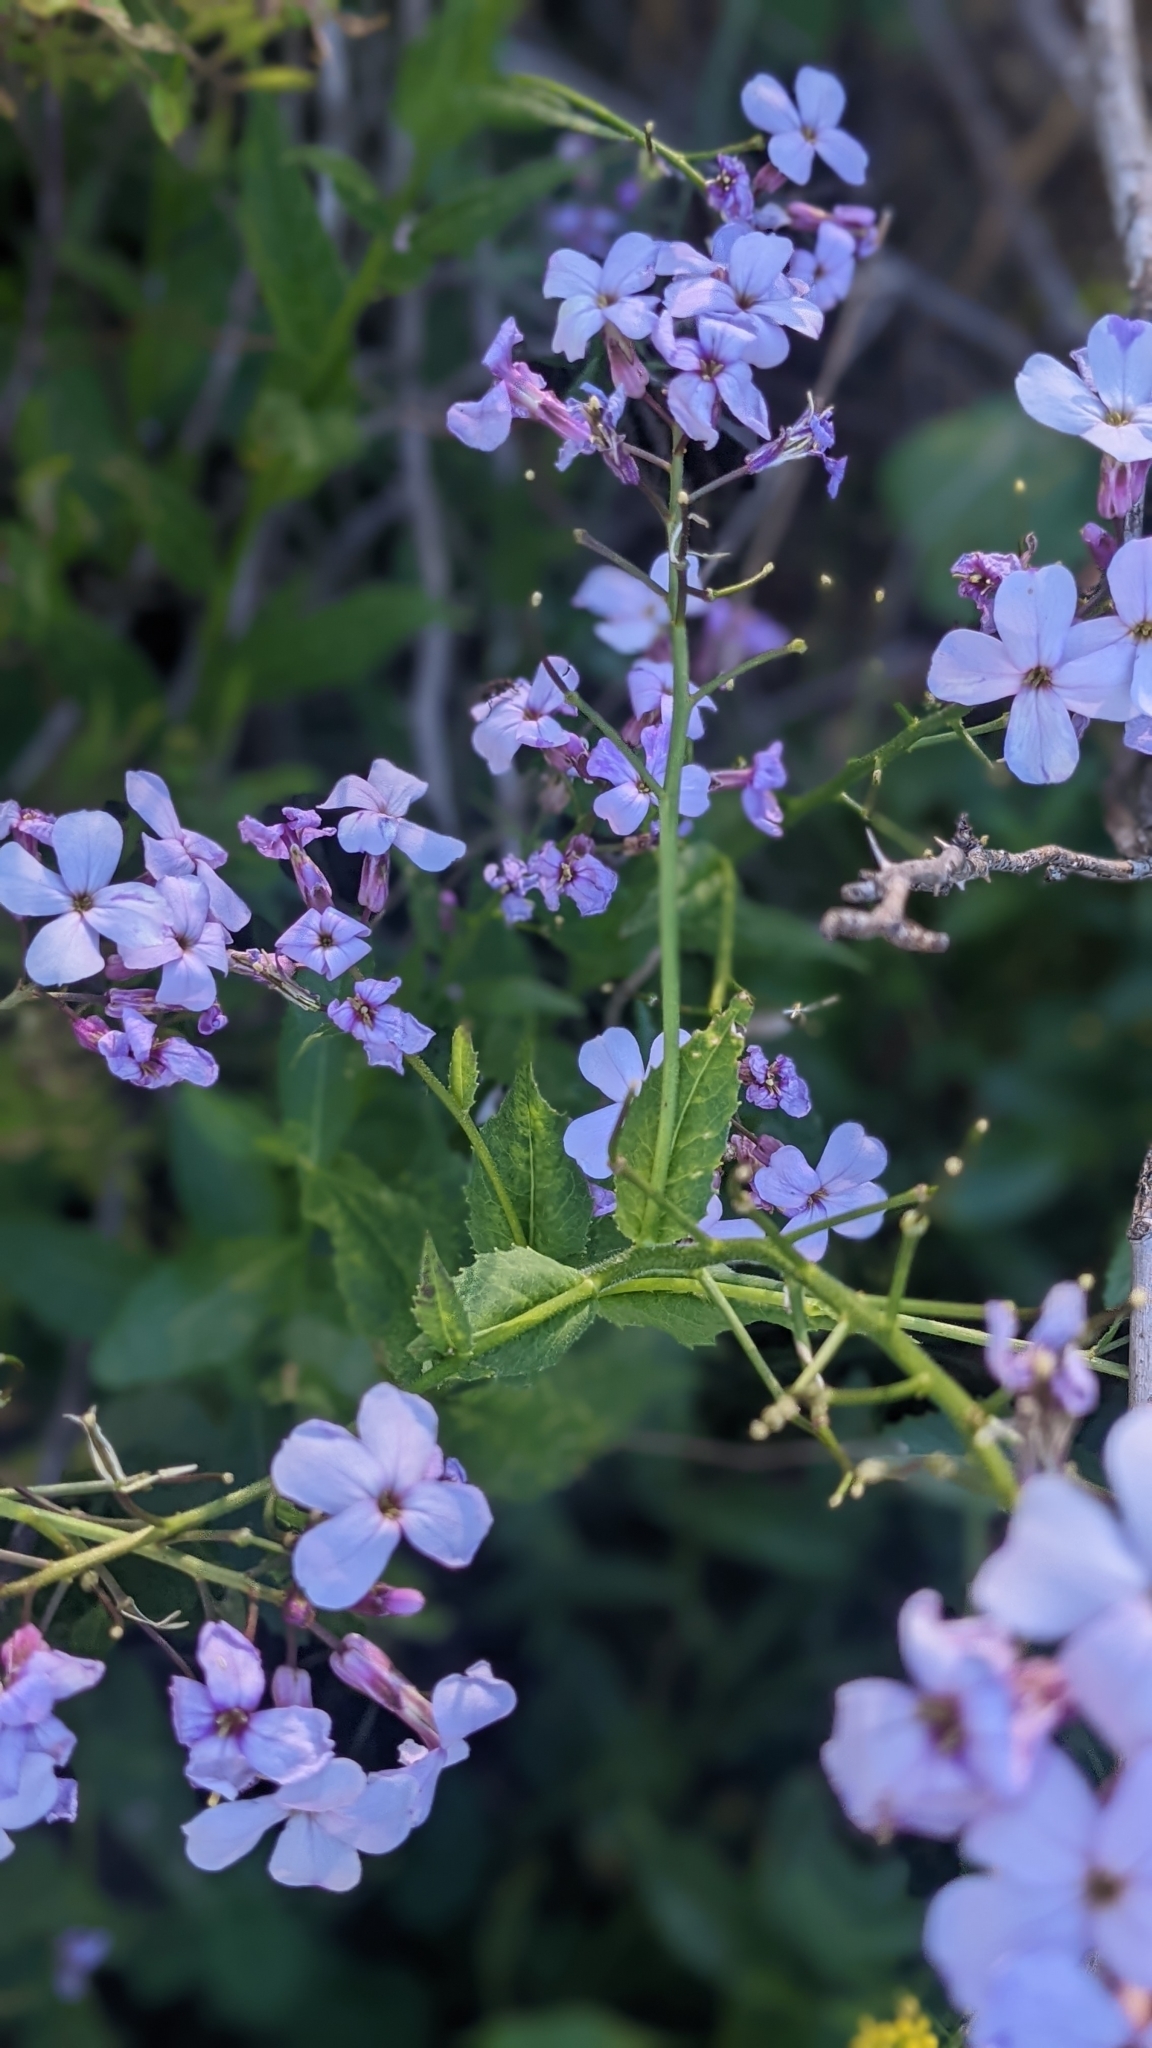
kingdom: Plantae
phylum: Tracheophyta
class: Magnoliopsida
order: Brassicales
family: Brassicaceae
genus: Hesperis
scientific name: Hesperis matronalis
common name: Dame's-violet
